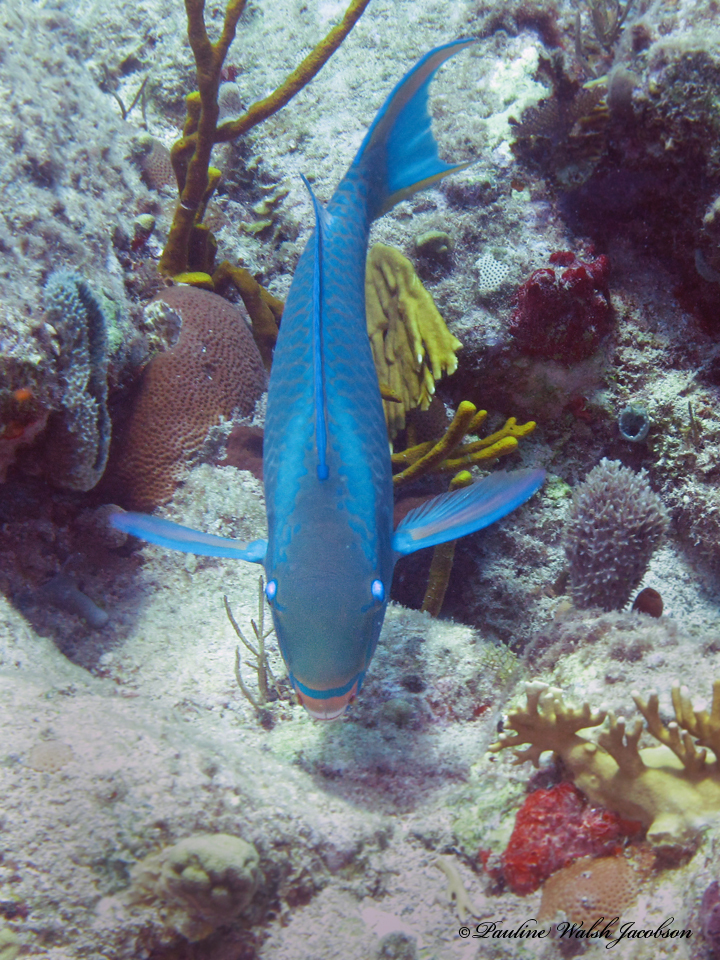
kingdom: Animalia
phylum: Chordata
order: Perciformes
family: Scaridae
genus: Scarus
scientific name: Scarus vetula
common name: Queen parrotfish
